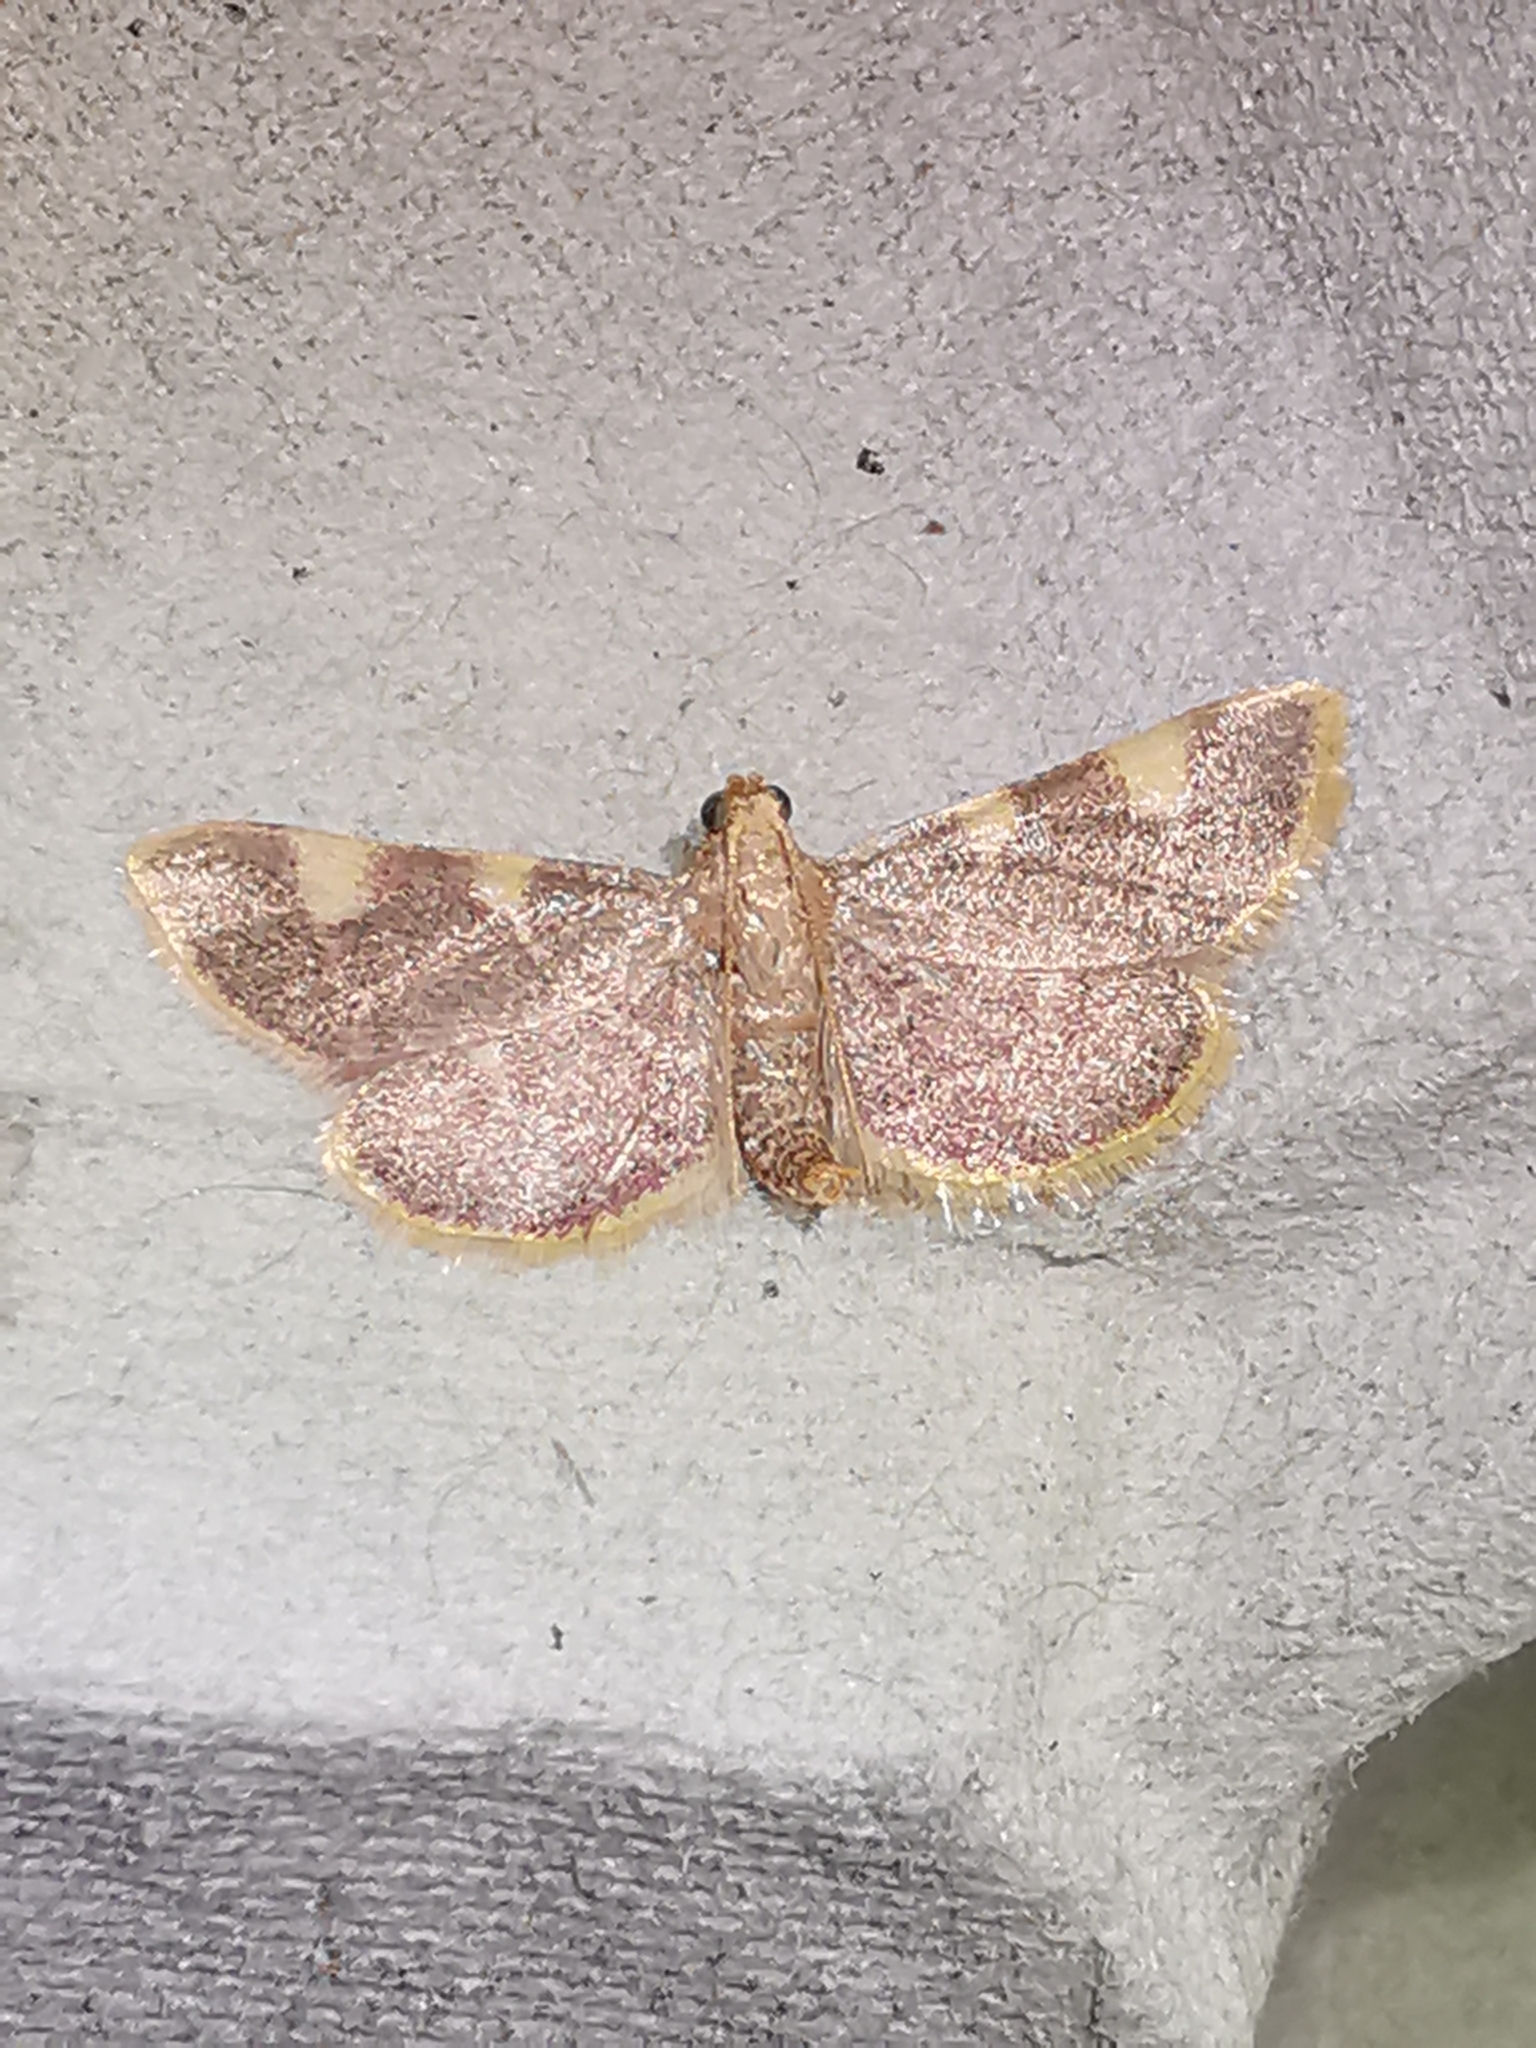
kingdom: Animalia
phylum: Arthropoda
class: Insecta
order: Lepidoptera
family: Pyralidae
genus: Hypsopygia
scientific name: Hypsopygia costalis
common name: Gold triangle
